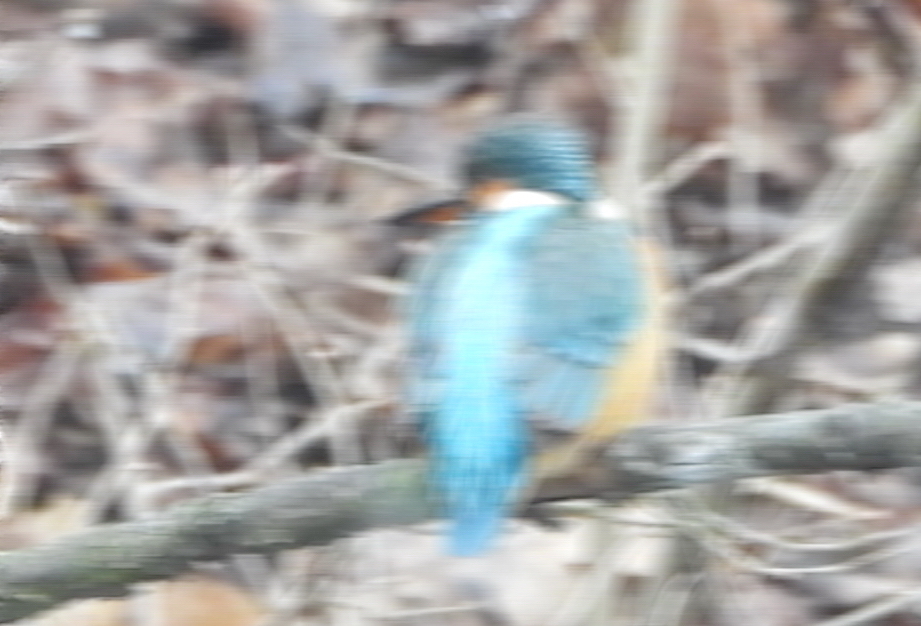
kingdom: Animalia
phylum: Chordata
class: Aves
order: Coraciiformes
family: Alcedinidae
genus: Alcedo
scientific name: Alcedo atthis
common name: Common kingfisher
